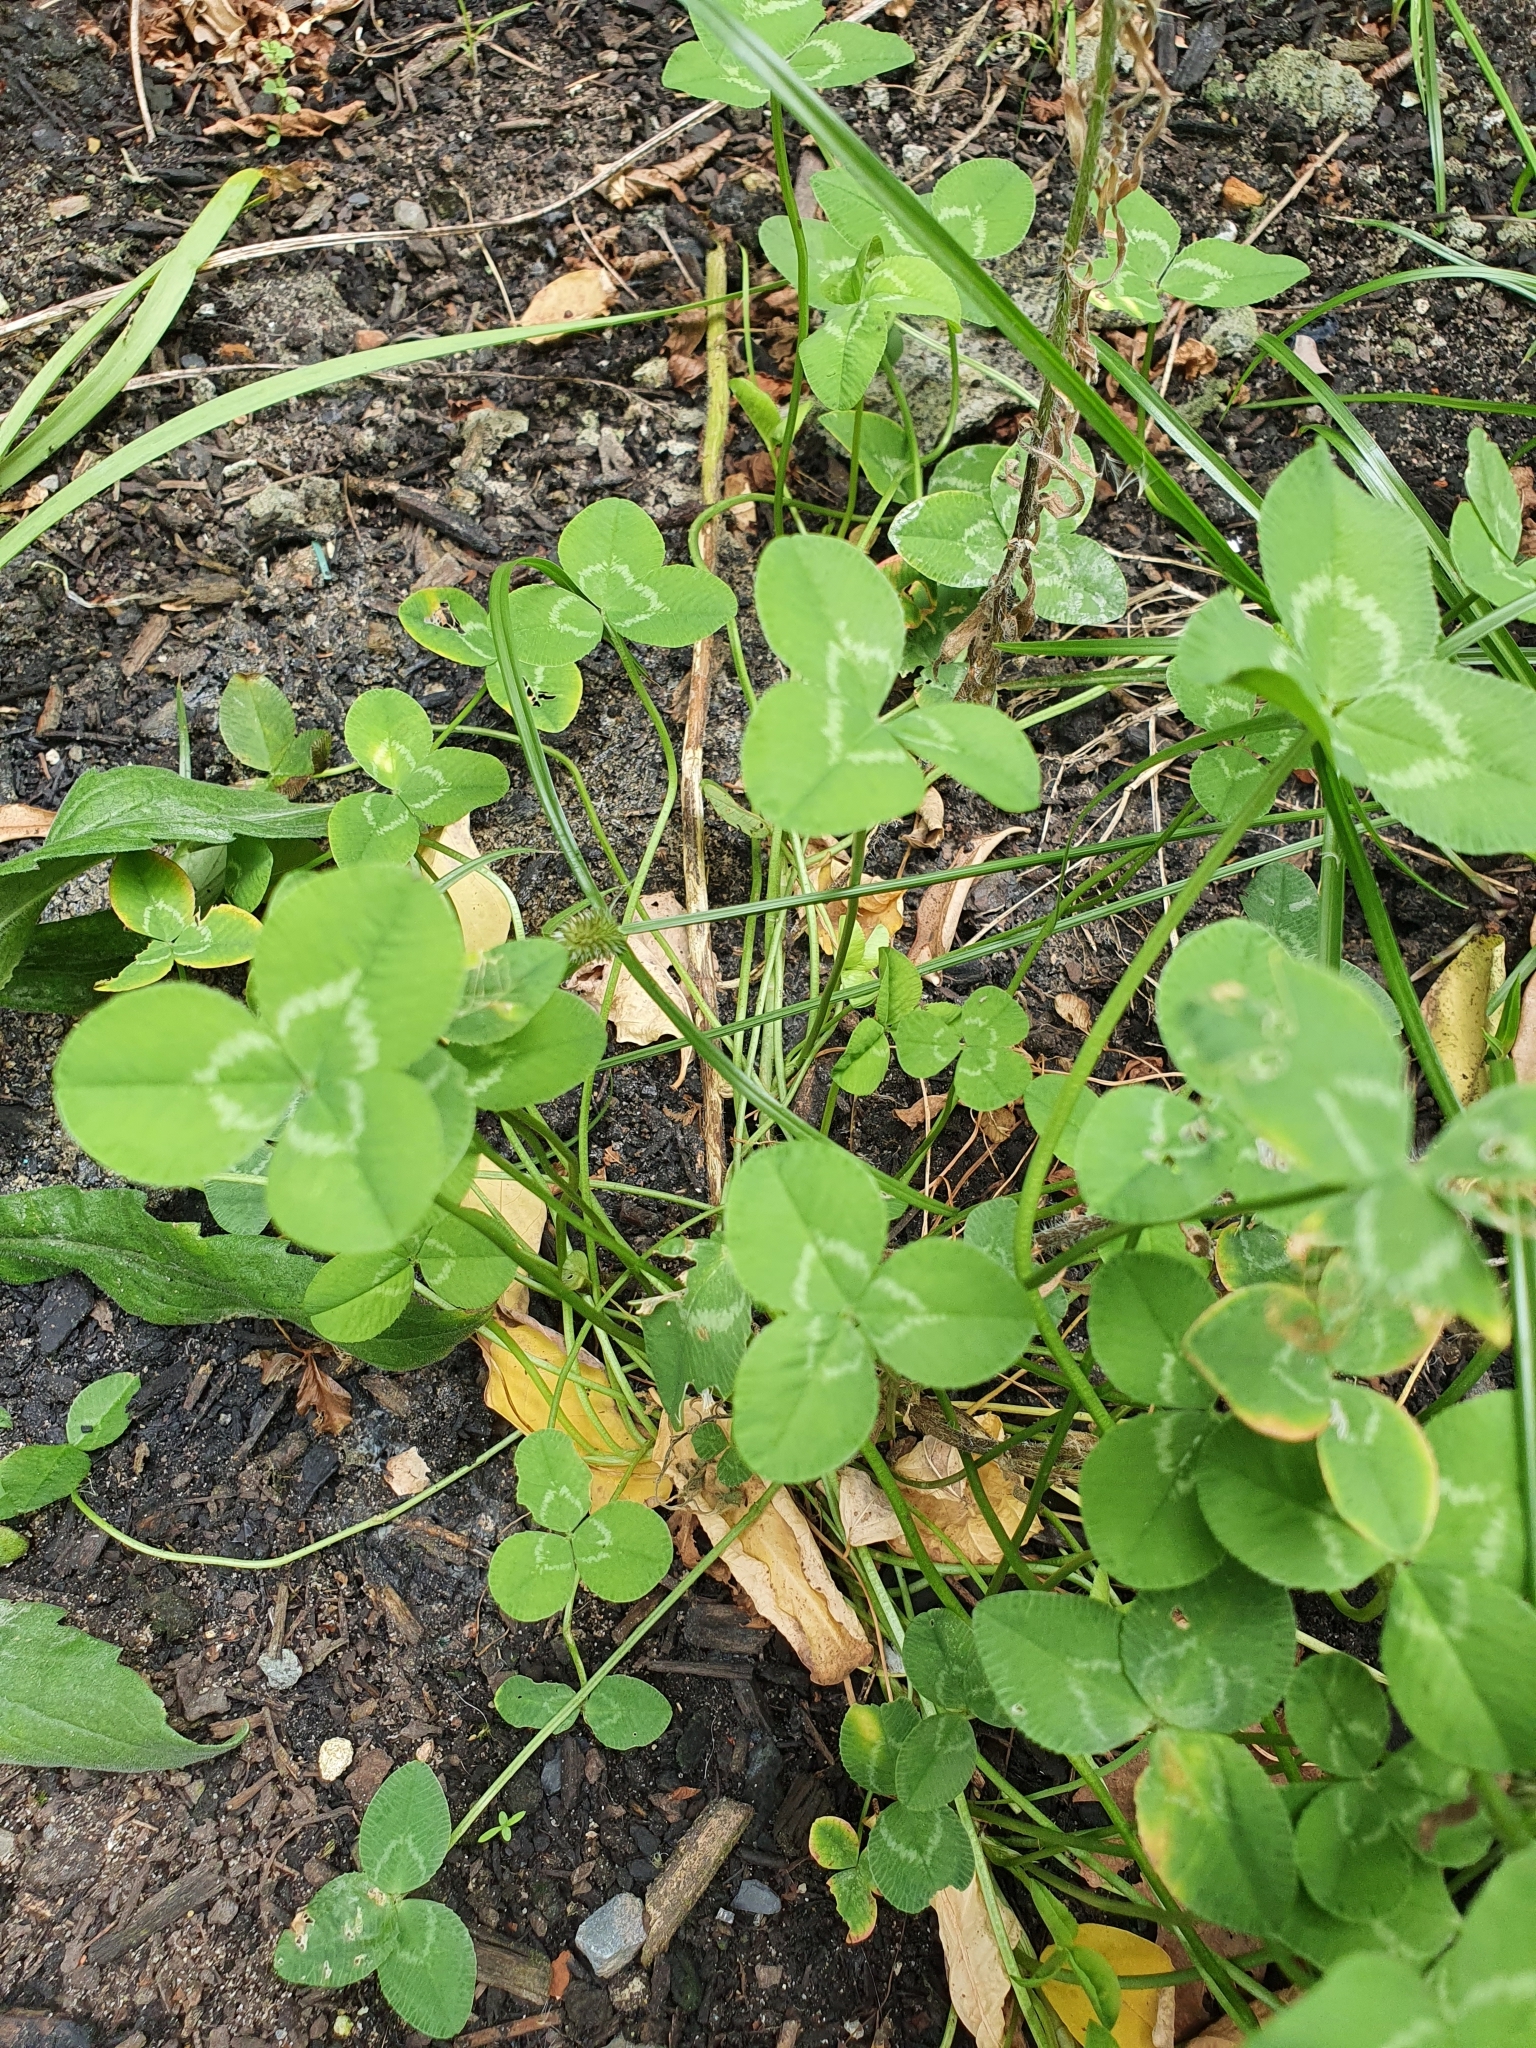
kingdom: Plantae
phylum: Tracheophyta
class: Magnoliopsida
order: Fabales
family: Fabaceae
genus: Trifolium
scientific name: Trifolium repens
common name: White clover
